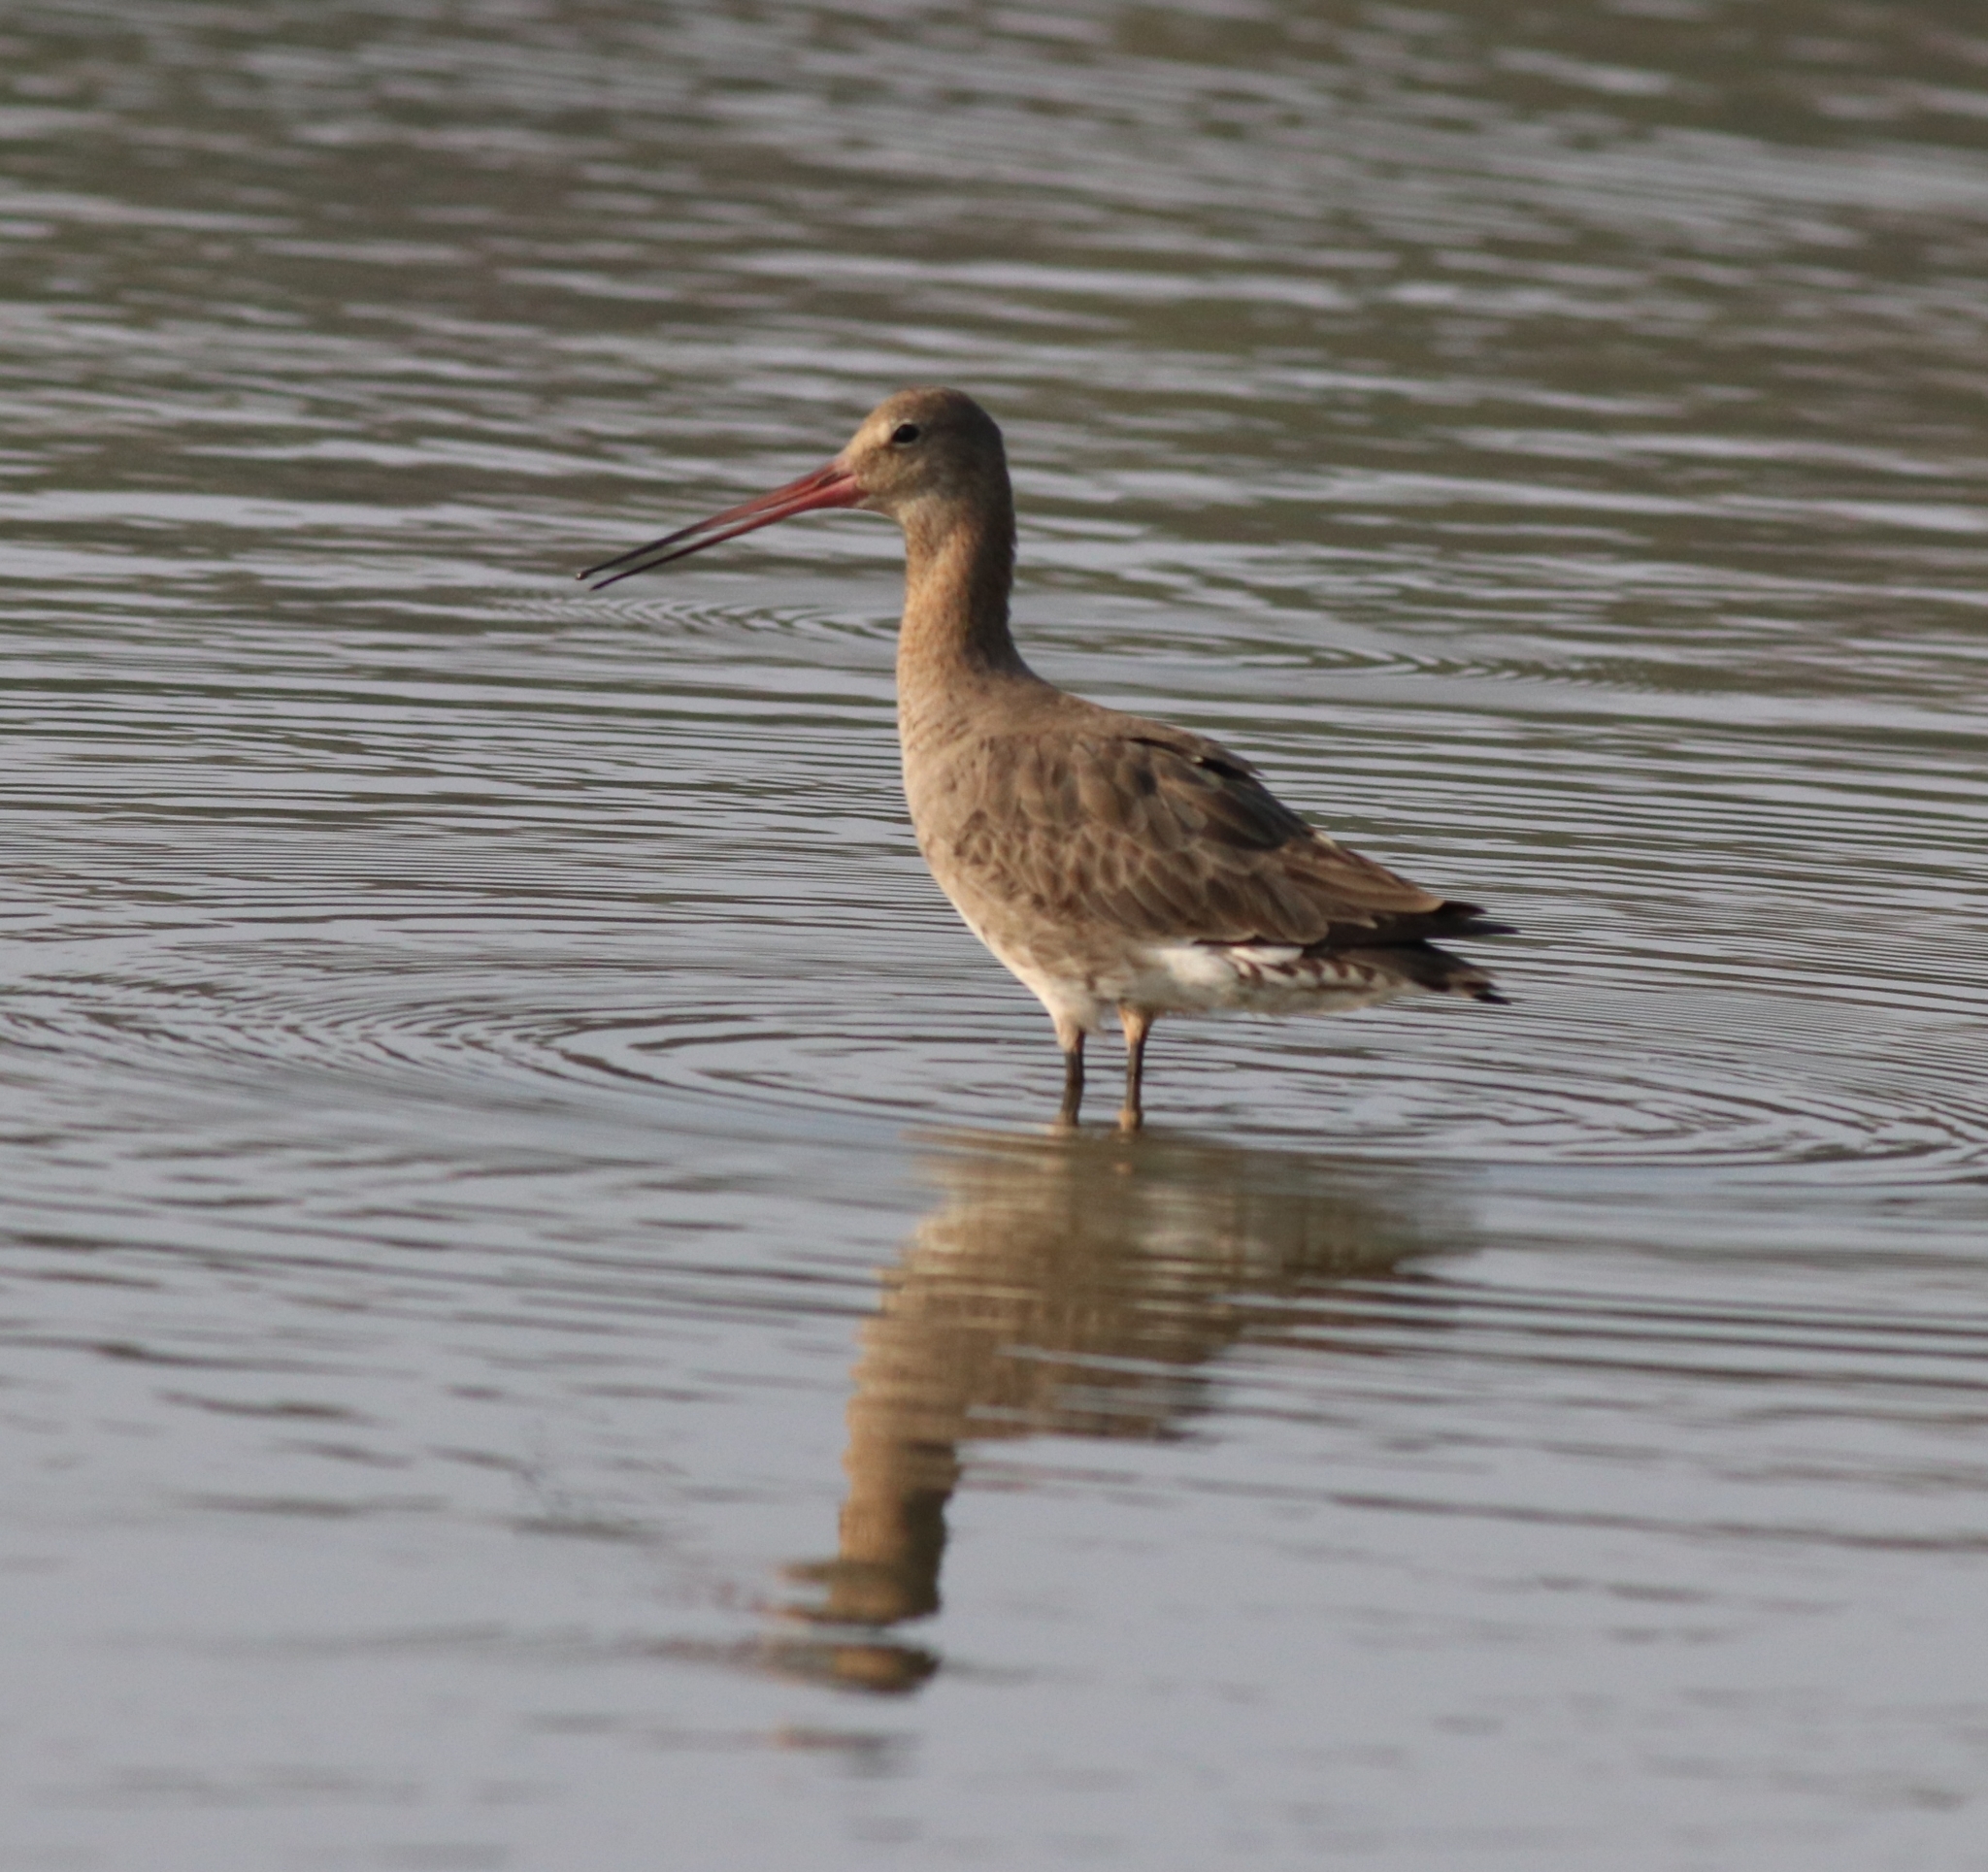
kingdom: Animalia
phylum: Chordata
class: Aves
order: Charadriiformes
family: Scolopacidae
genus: Limosa
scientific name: Limosa limosa
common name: Black-tailed godwit
